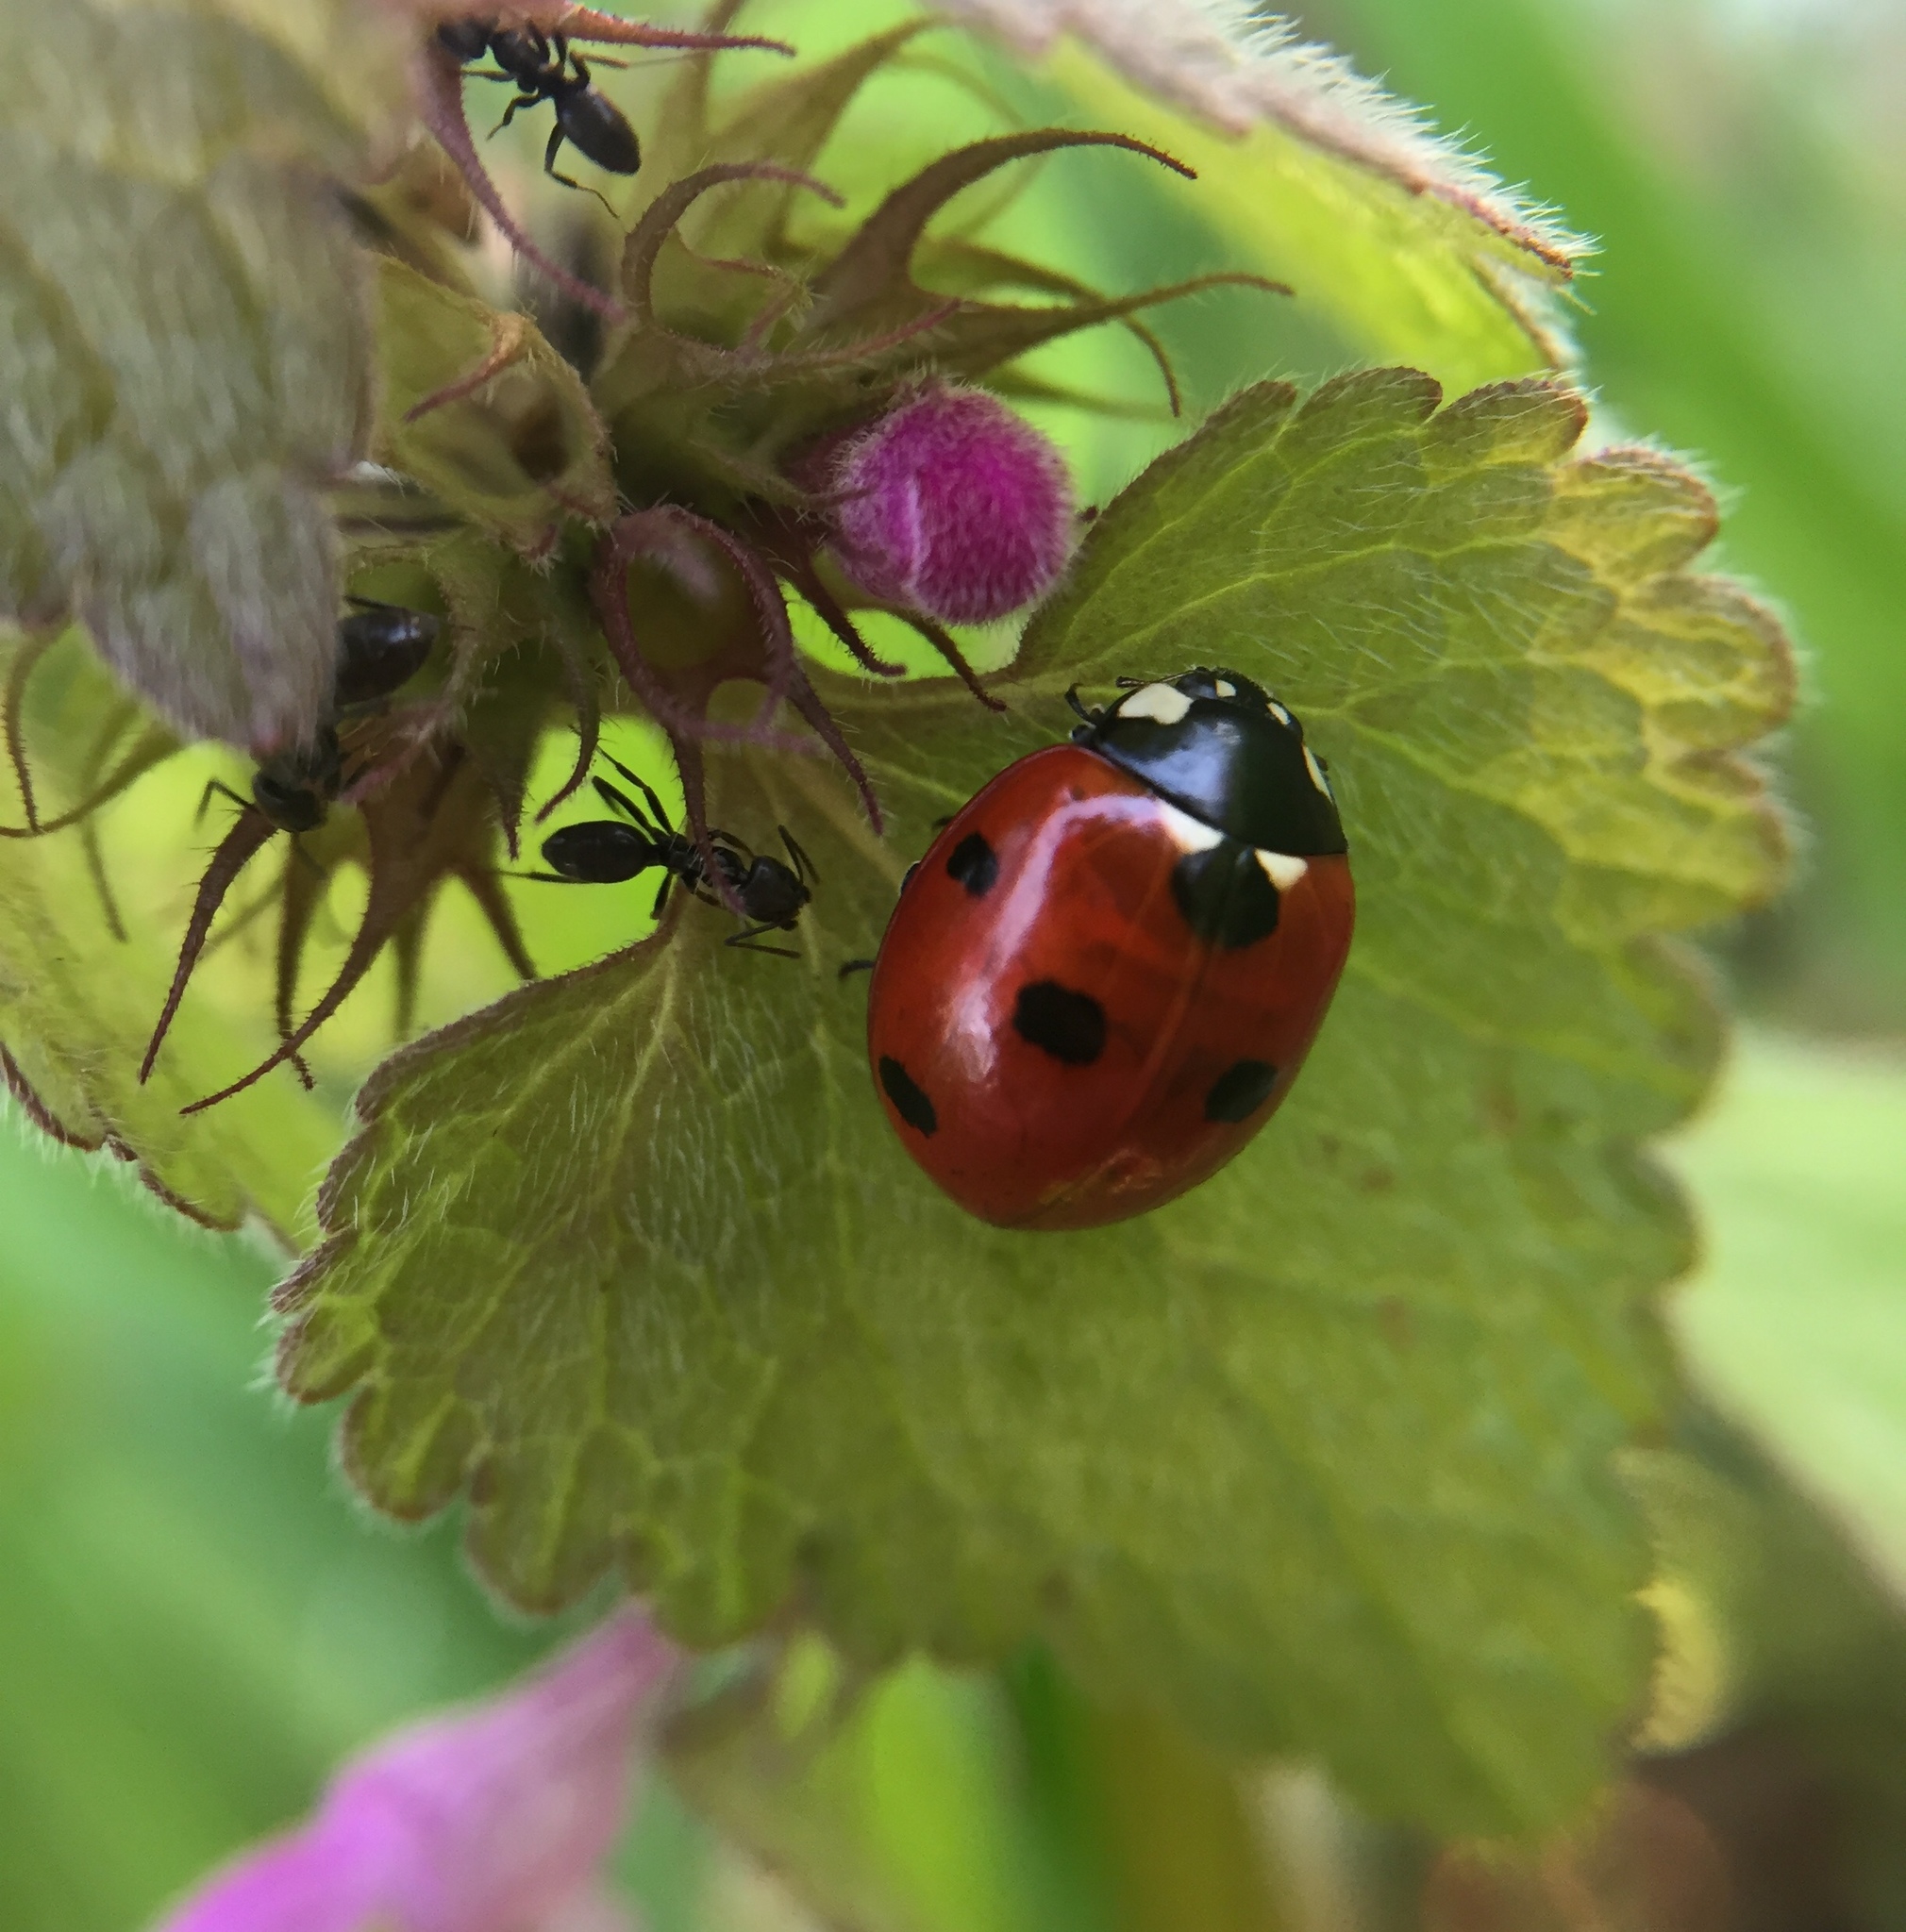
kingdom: Animalia
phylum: Arthropoda
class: Insecta
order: Coleoptera
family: Coccinellidae
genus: Coccinella
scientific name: Coccinella septempunctata
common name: Sevenspotted lady beetle
